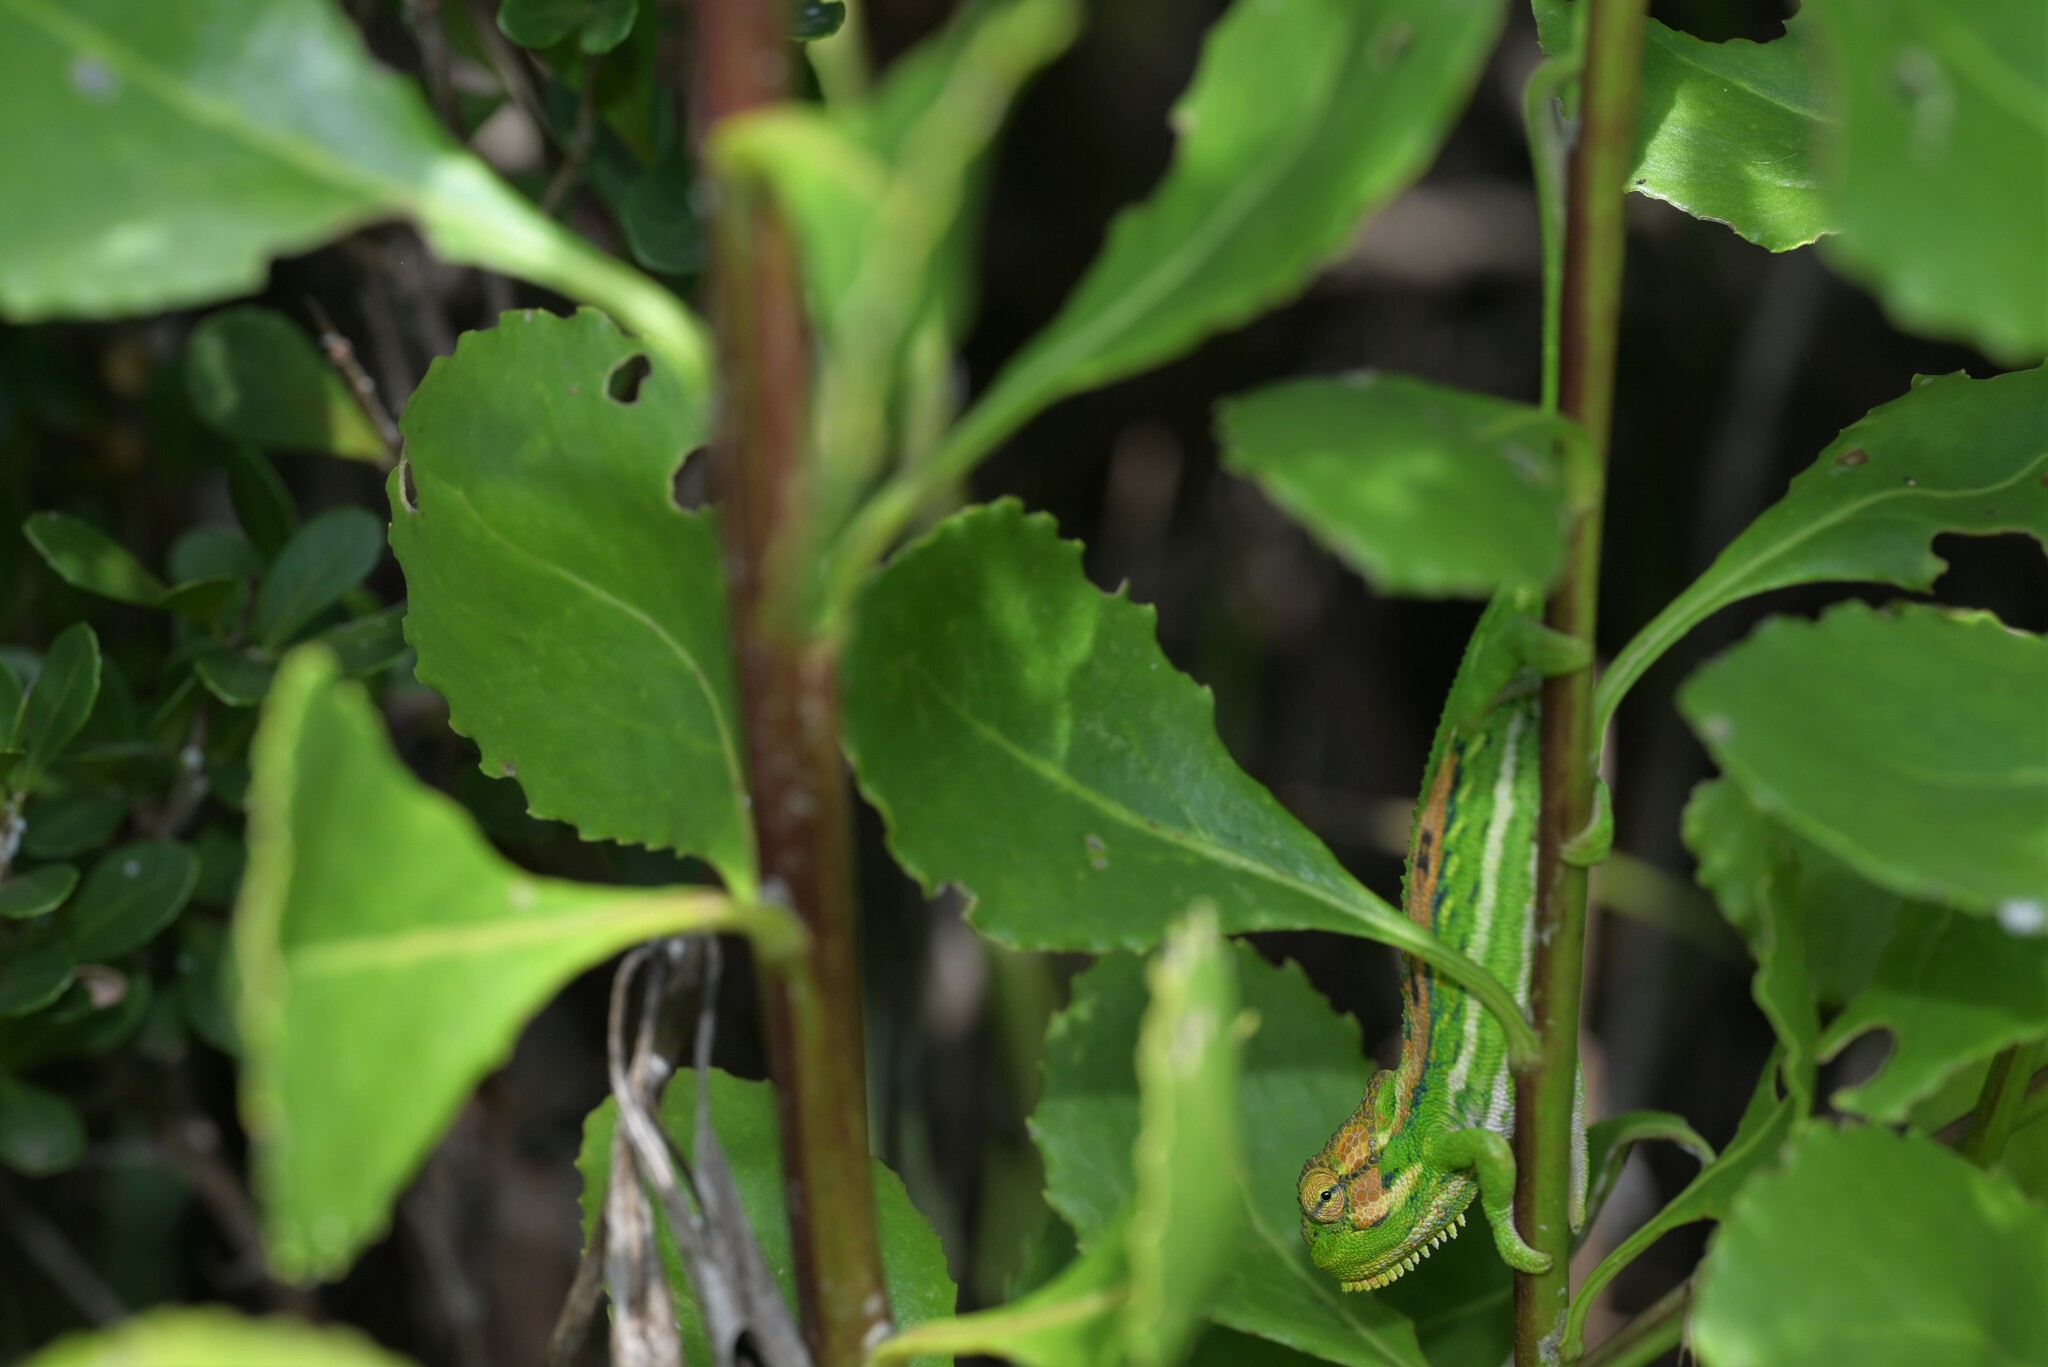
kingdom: Animalia
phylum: Chordata
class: Squamata
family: Chamaeleonidae
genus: Bradypodion
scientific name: Bradypodion pumilum
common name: Cape dwarf chameleon
